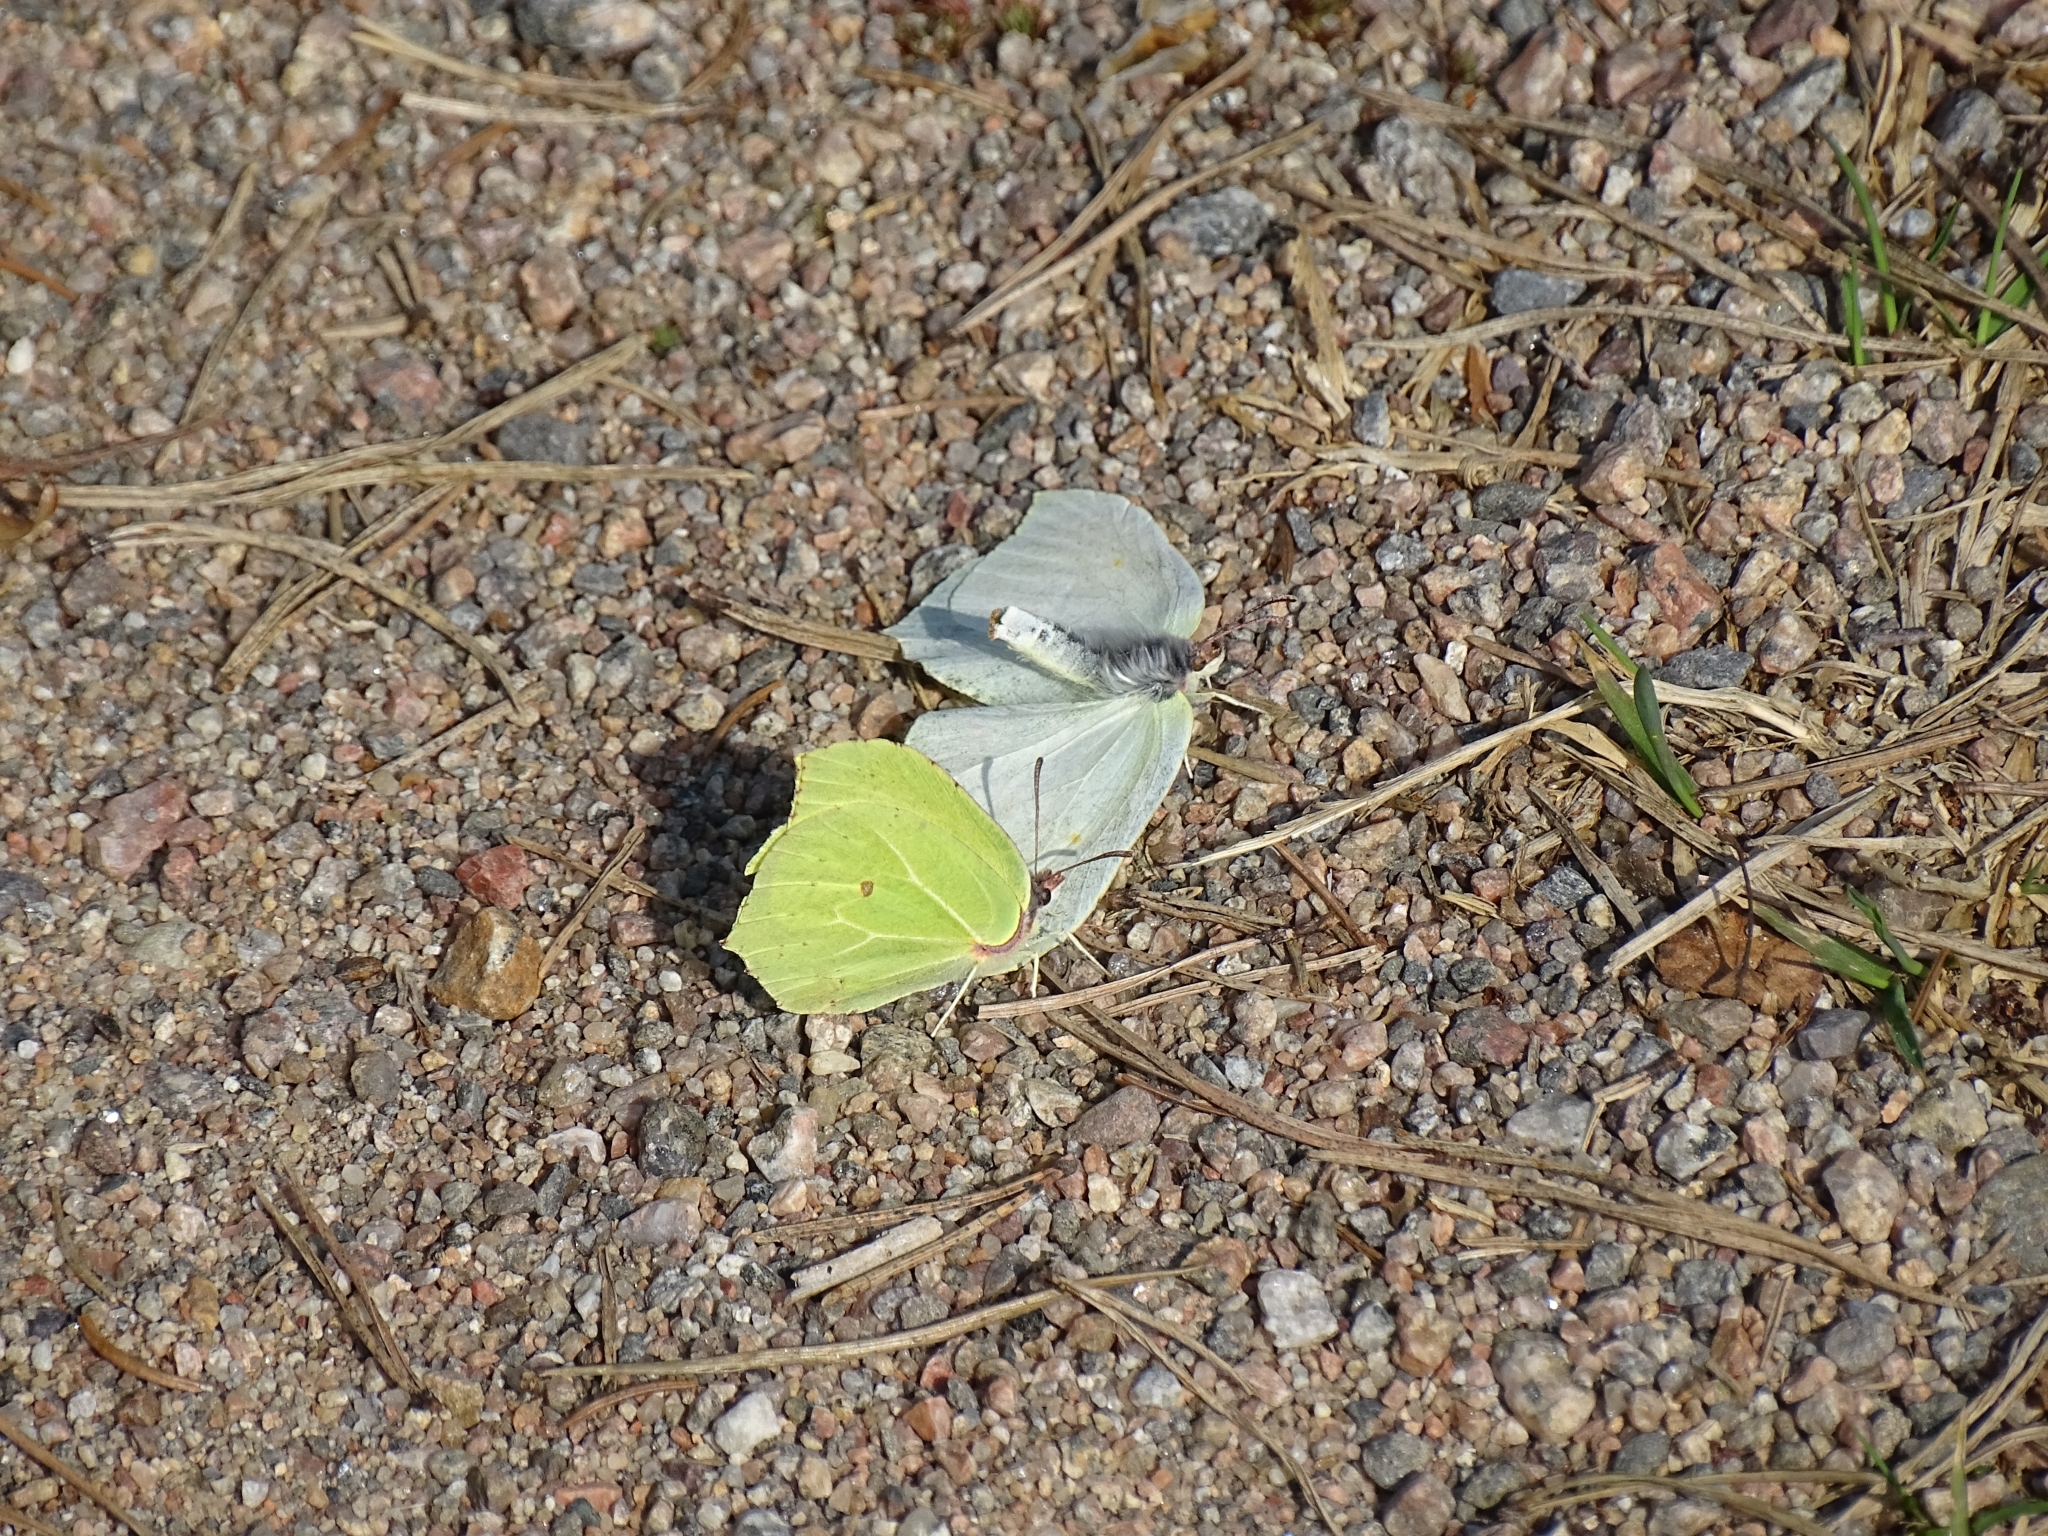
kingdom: Animalia
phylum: Arthropoda
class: Insecta
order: Lepidoptera
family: Pieridae
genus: Gonepteryx
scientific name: Gonepteryx rhamni
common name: Brimstone
